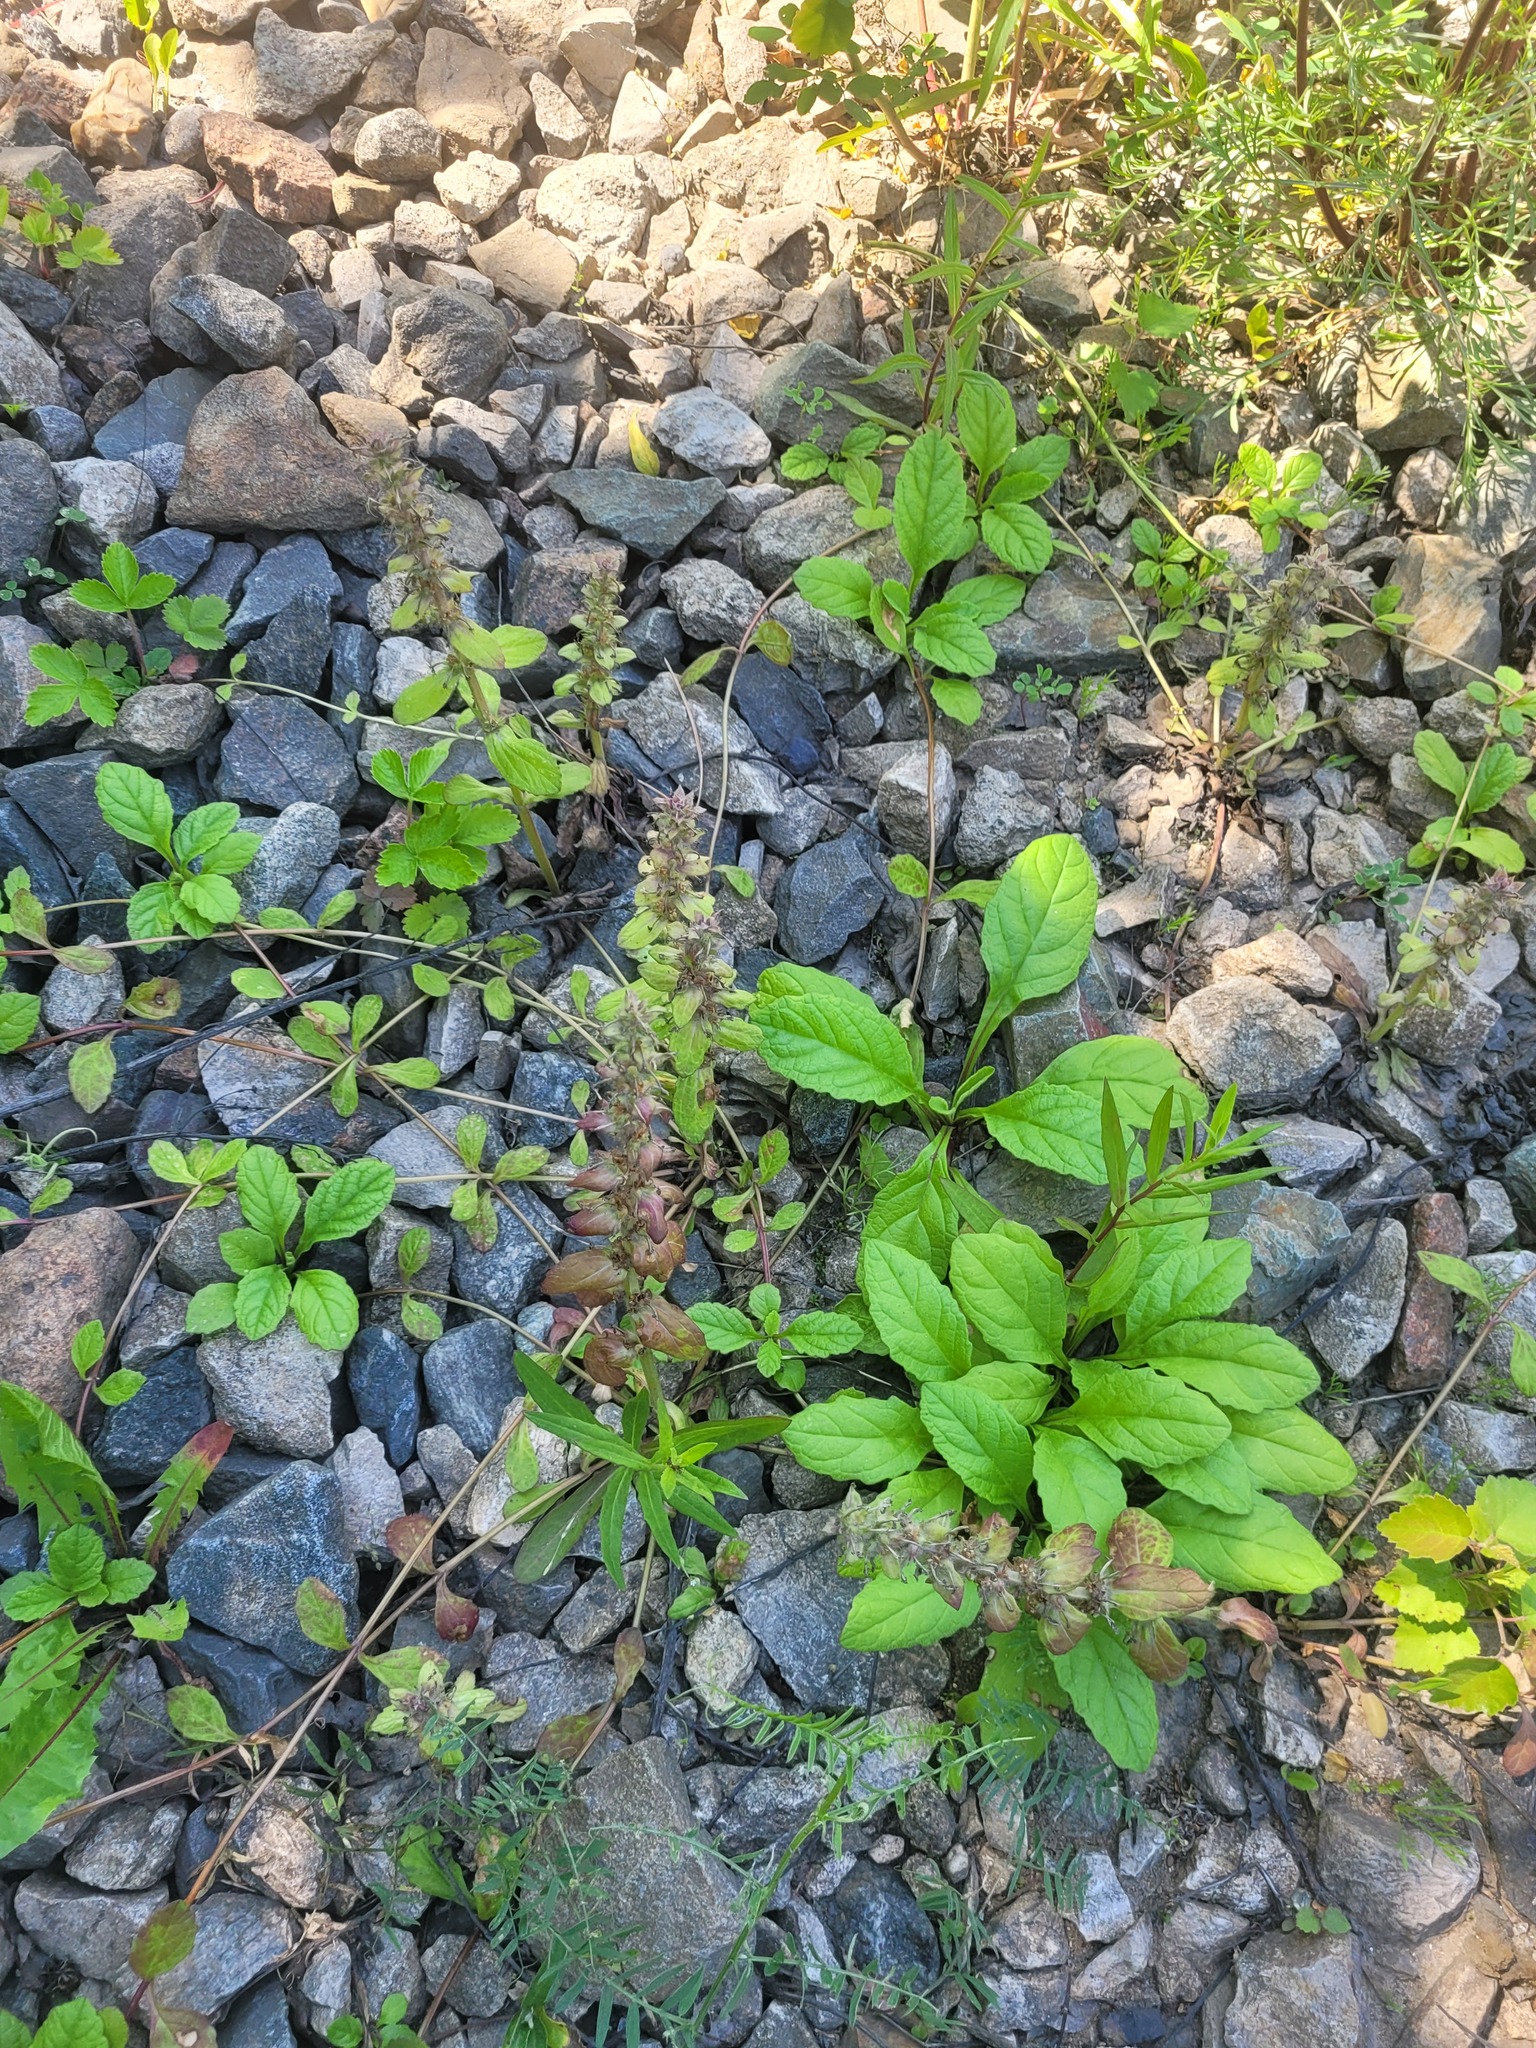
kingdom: Plantae
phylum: Tracheophyta
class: Magnoliopsida
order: Lamiales
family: Lamiaceae
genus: Ajuga
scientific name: Ajuga reptans
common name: Bugle
